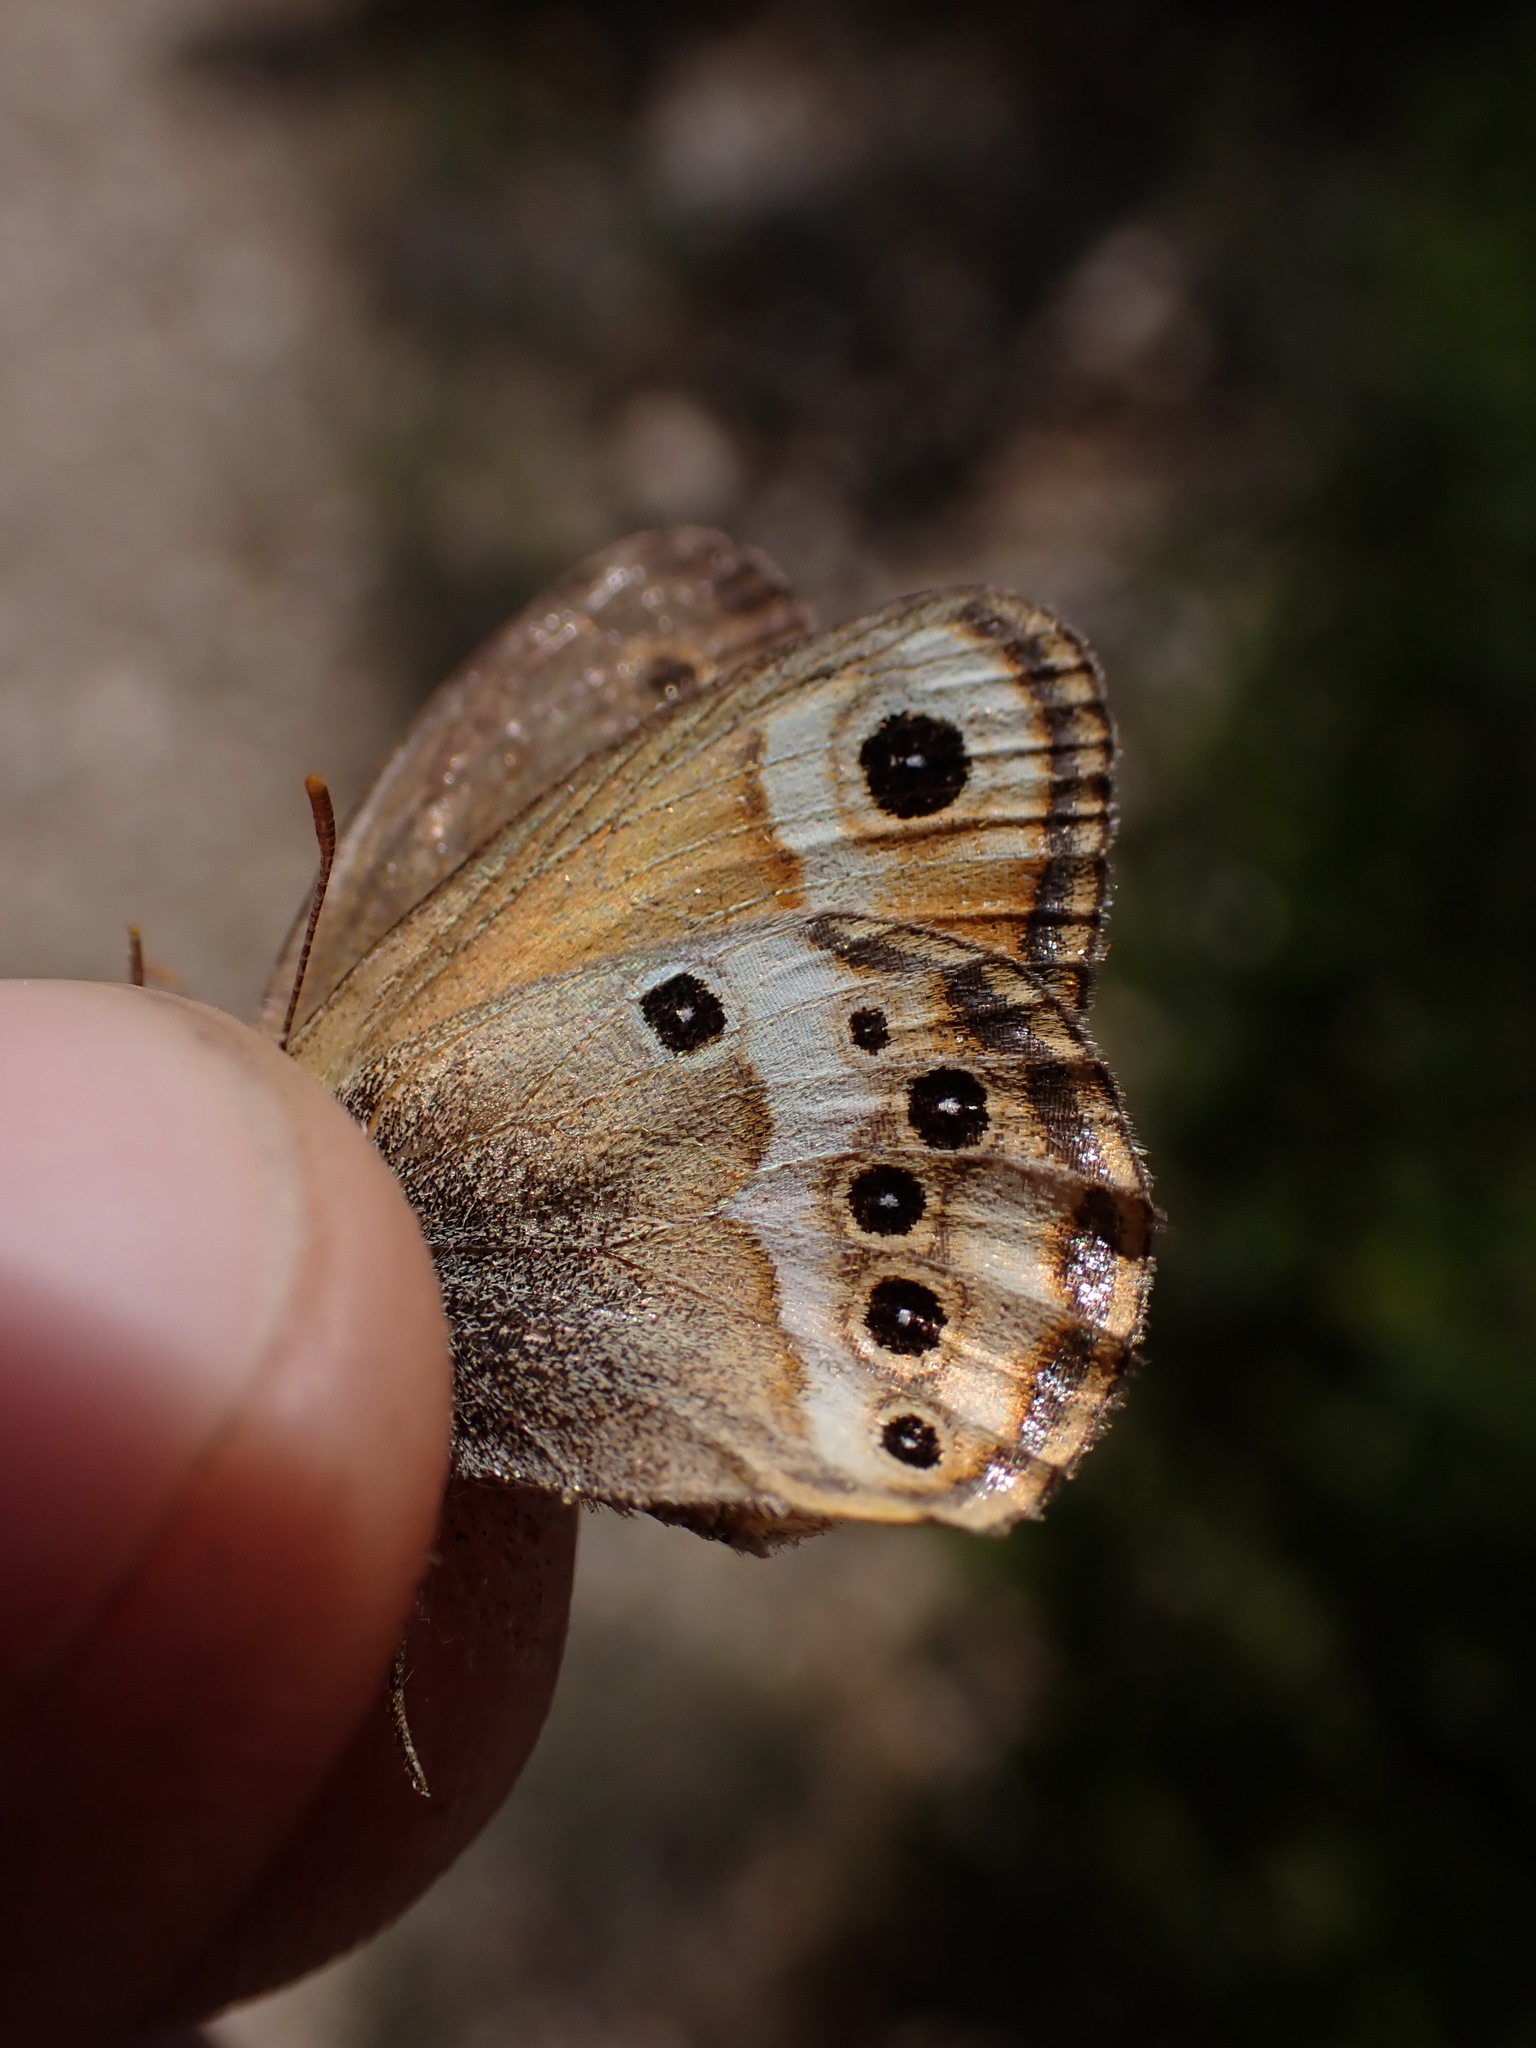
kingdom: Animalia
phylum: Arthropoda
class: Insecta
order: Lepidoptera
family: Nymphalidae
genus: Coenonympha
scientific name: Coenonympha dorus
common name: Dusky heath
